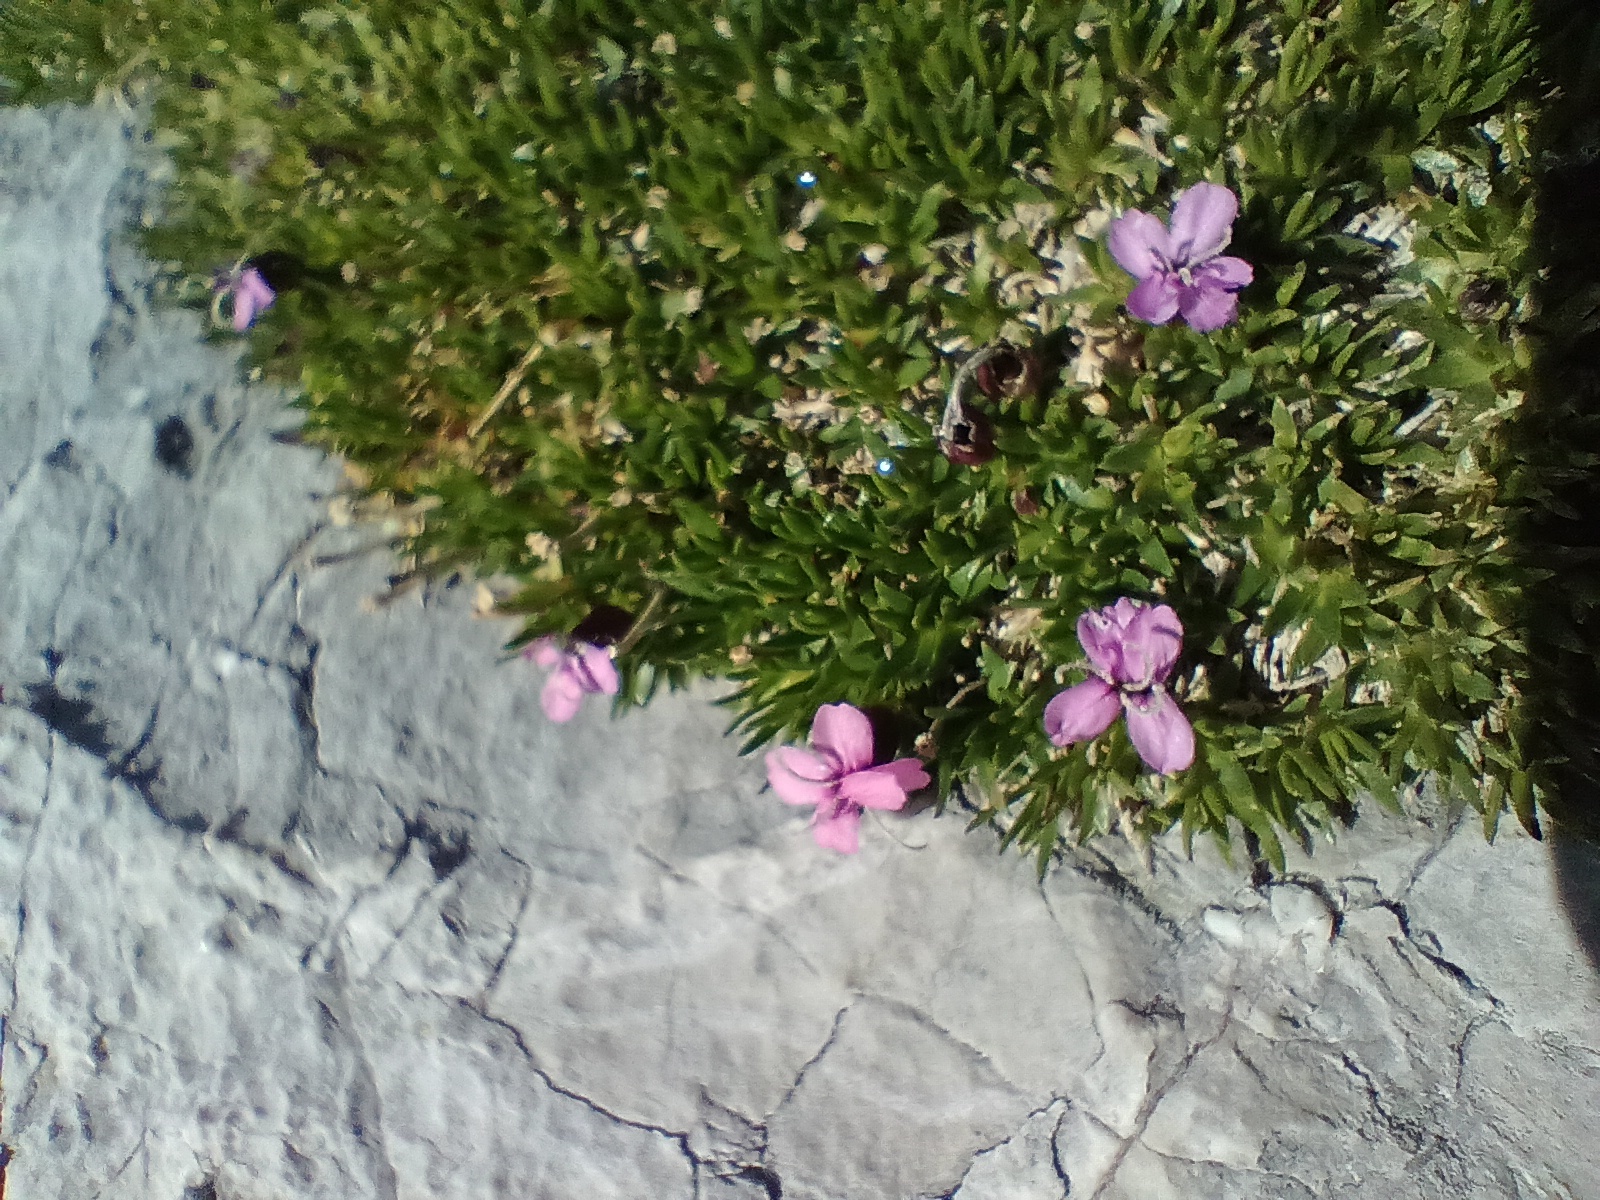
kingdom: Plantae
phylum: Tracheophyta
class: Magnoliopsida
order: Caryophyllales
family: Caryophyllaceae
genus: Silene
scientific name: Silene acaulis
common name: Moss campion
